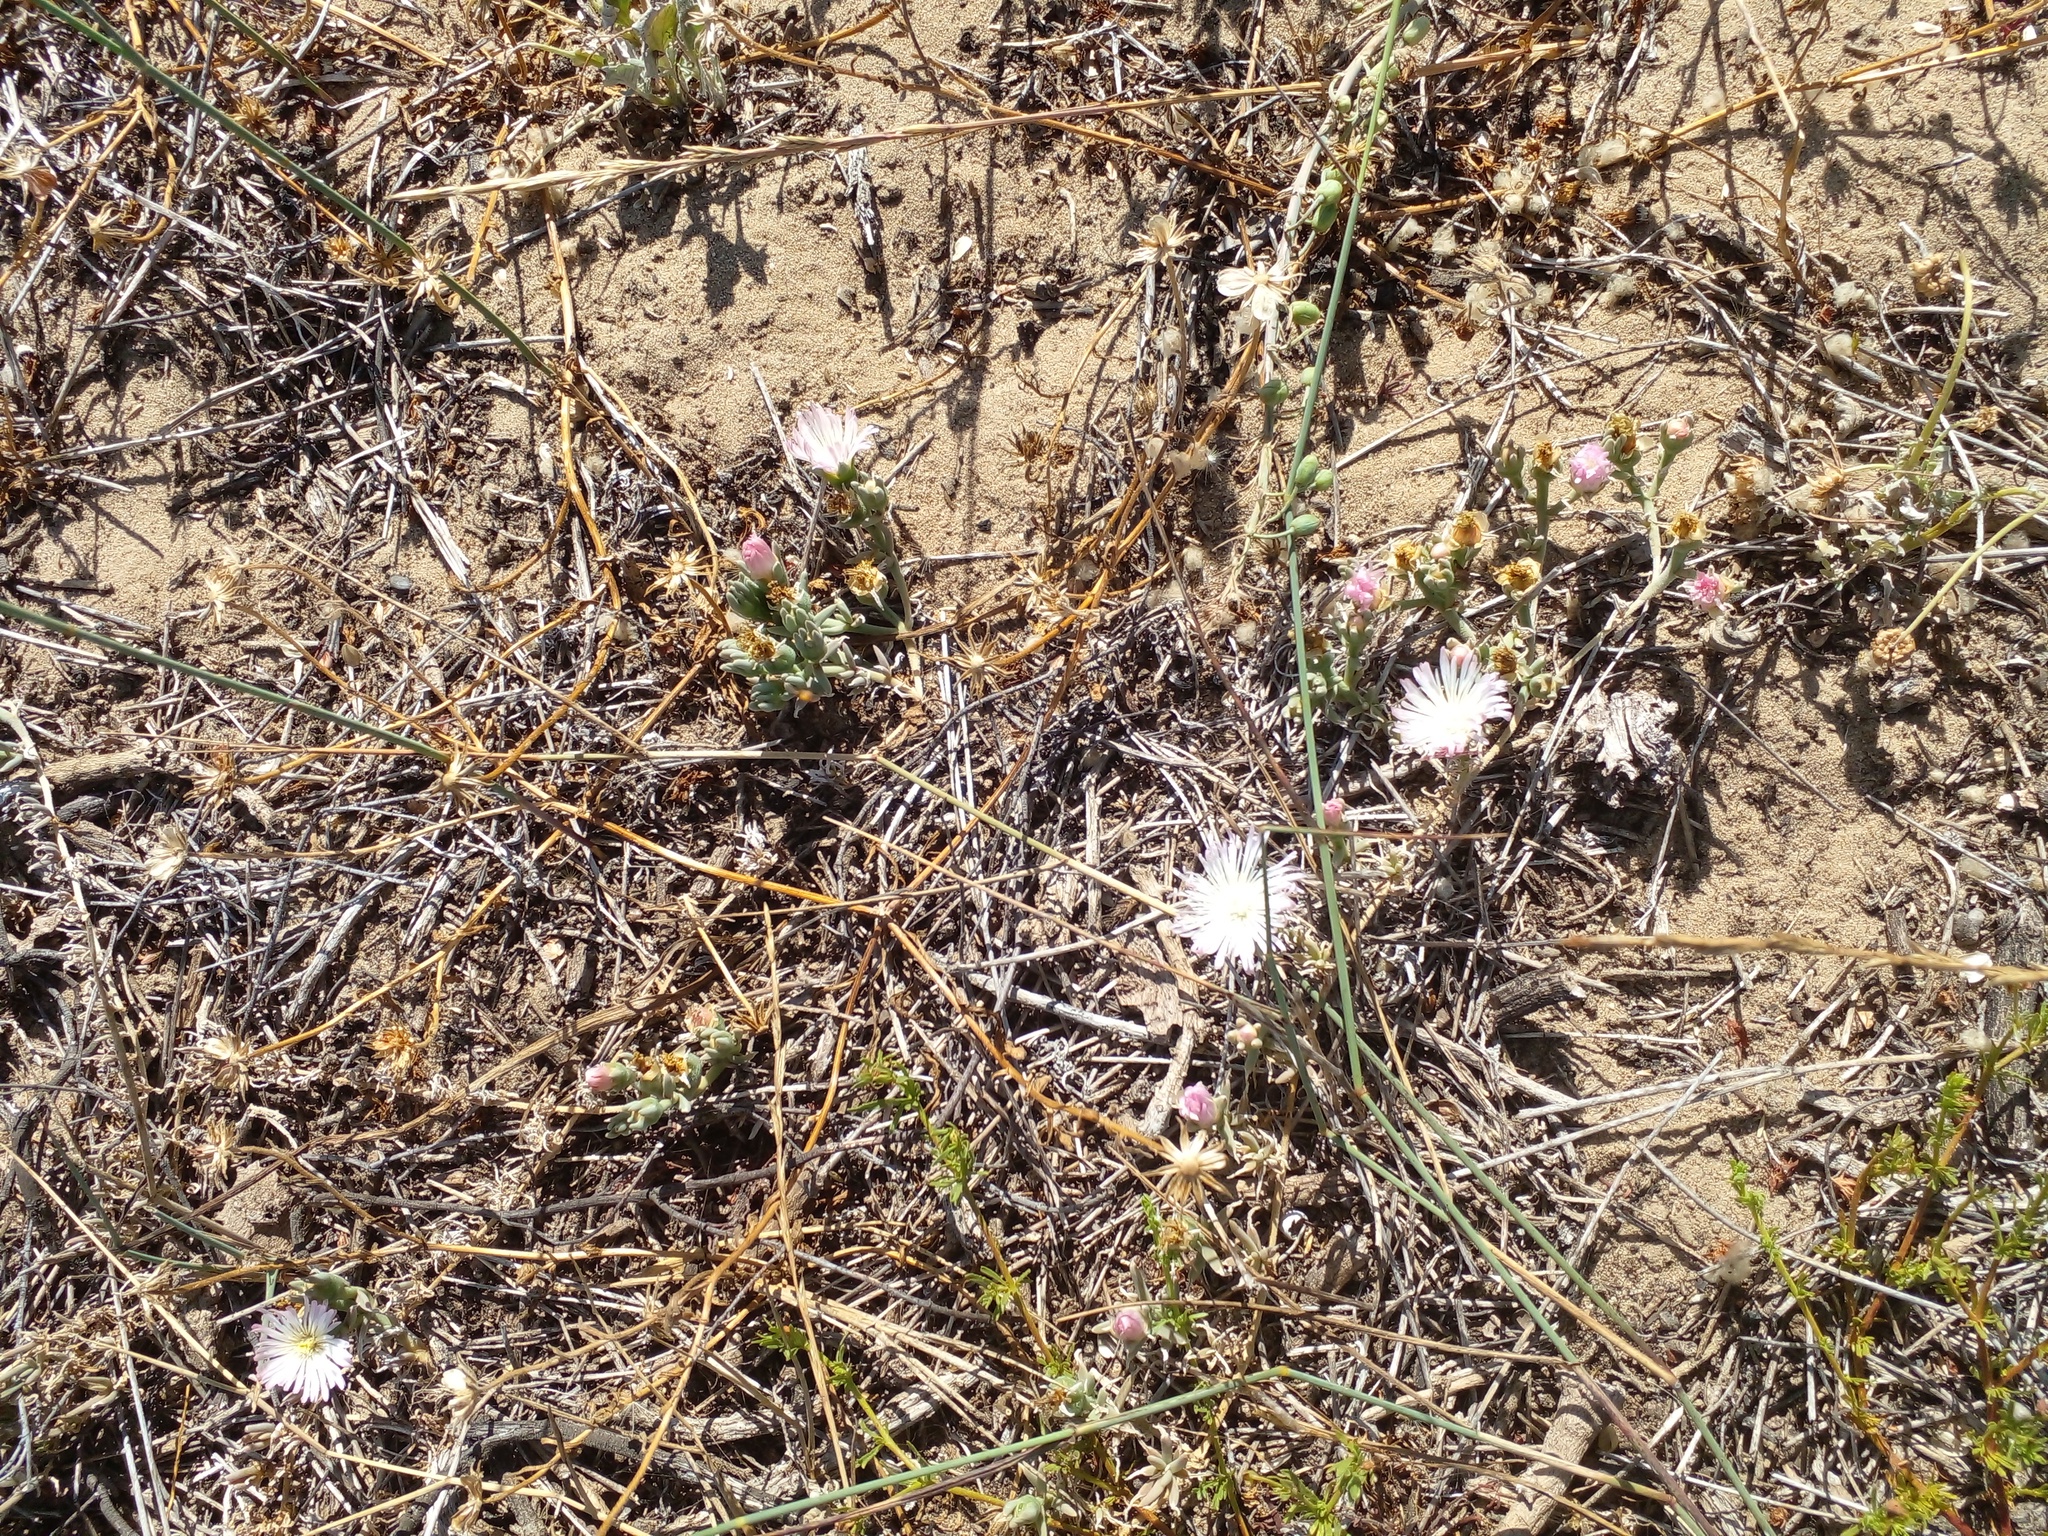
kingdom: Plantae
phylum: Tracheophyta
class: Magnoliopsida
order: Caryophyllales
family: Aizoaceae
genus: Mesembryanthemum
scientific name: Mesembryanthemum canaliculatum
